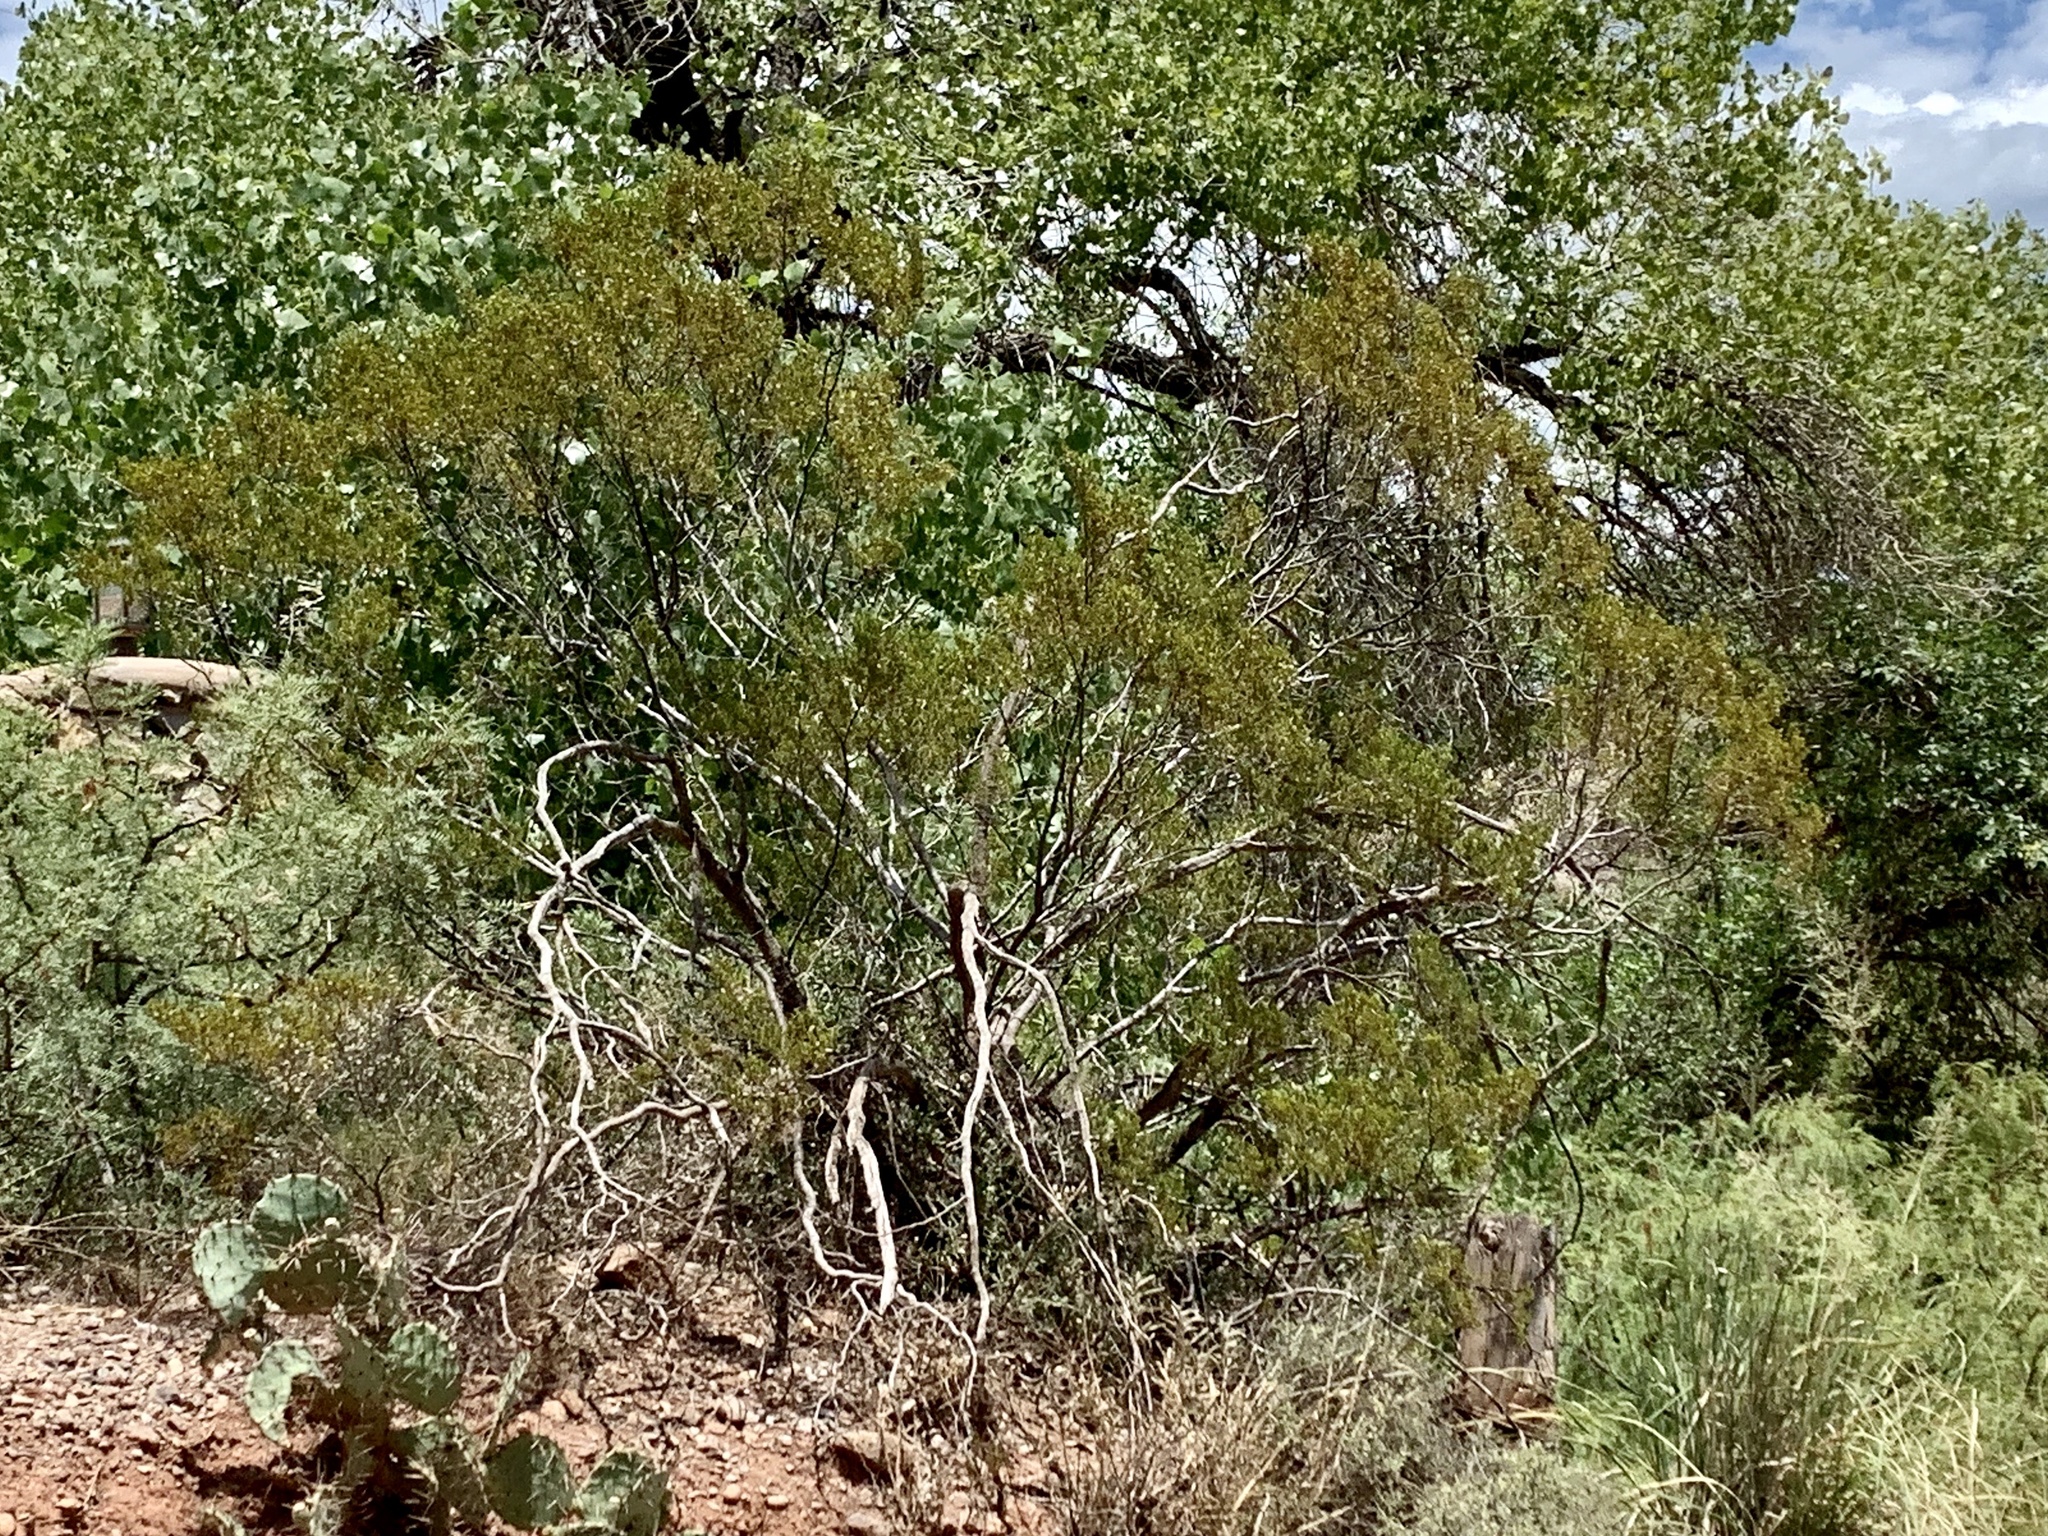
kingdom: Plantae
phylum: Tracheophyta
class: Magnoliopsida
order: Zygophyllales
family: Zygophyllaceae
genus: Larrea
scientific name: Larrea tridentata
